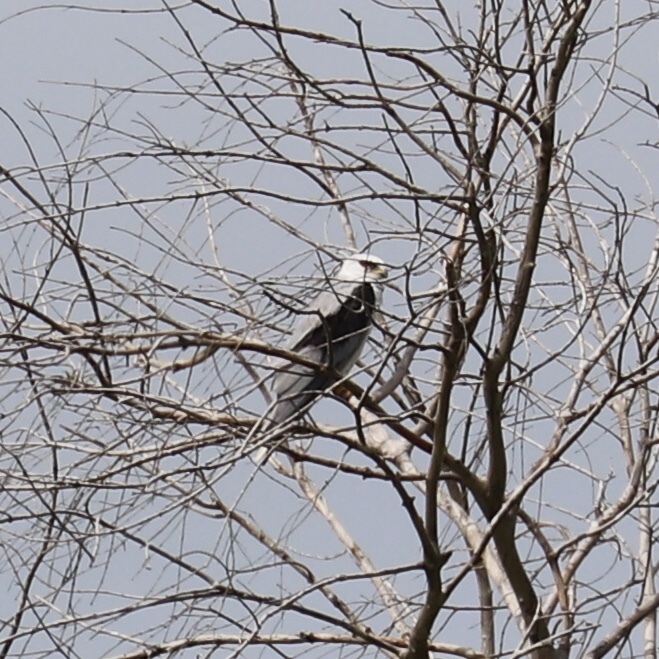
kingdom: Animalia
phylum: Chordata
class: Aves
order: Accipitriformes
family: Accipitridae
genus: Elanus
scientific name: Elanus leucurus
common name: White-tailed kite
